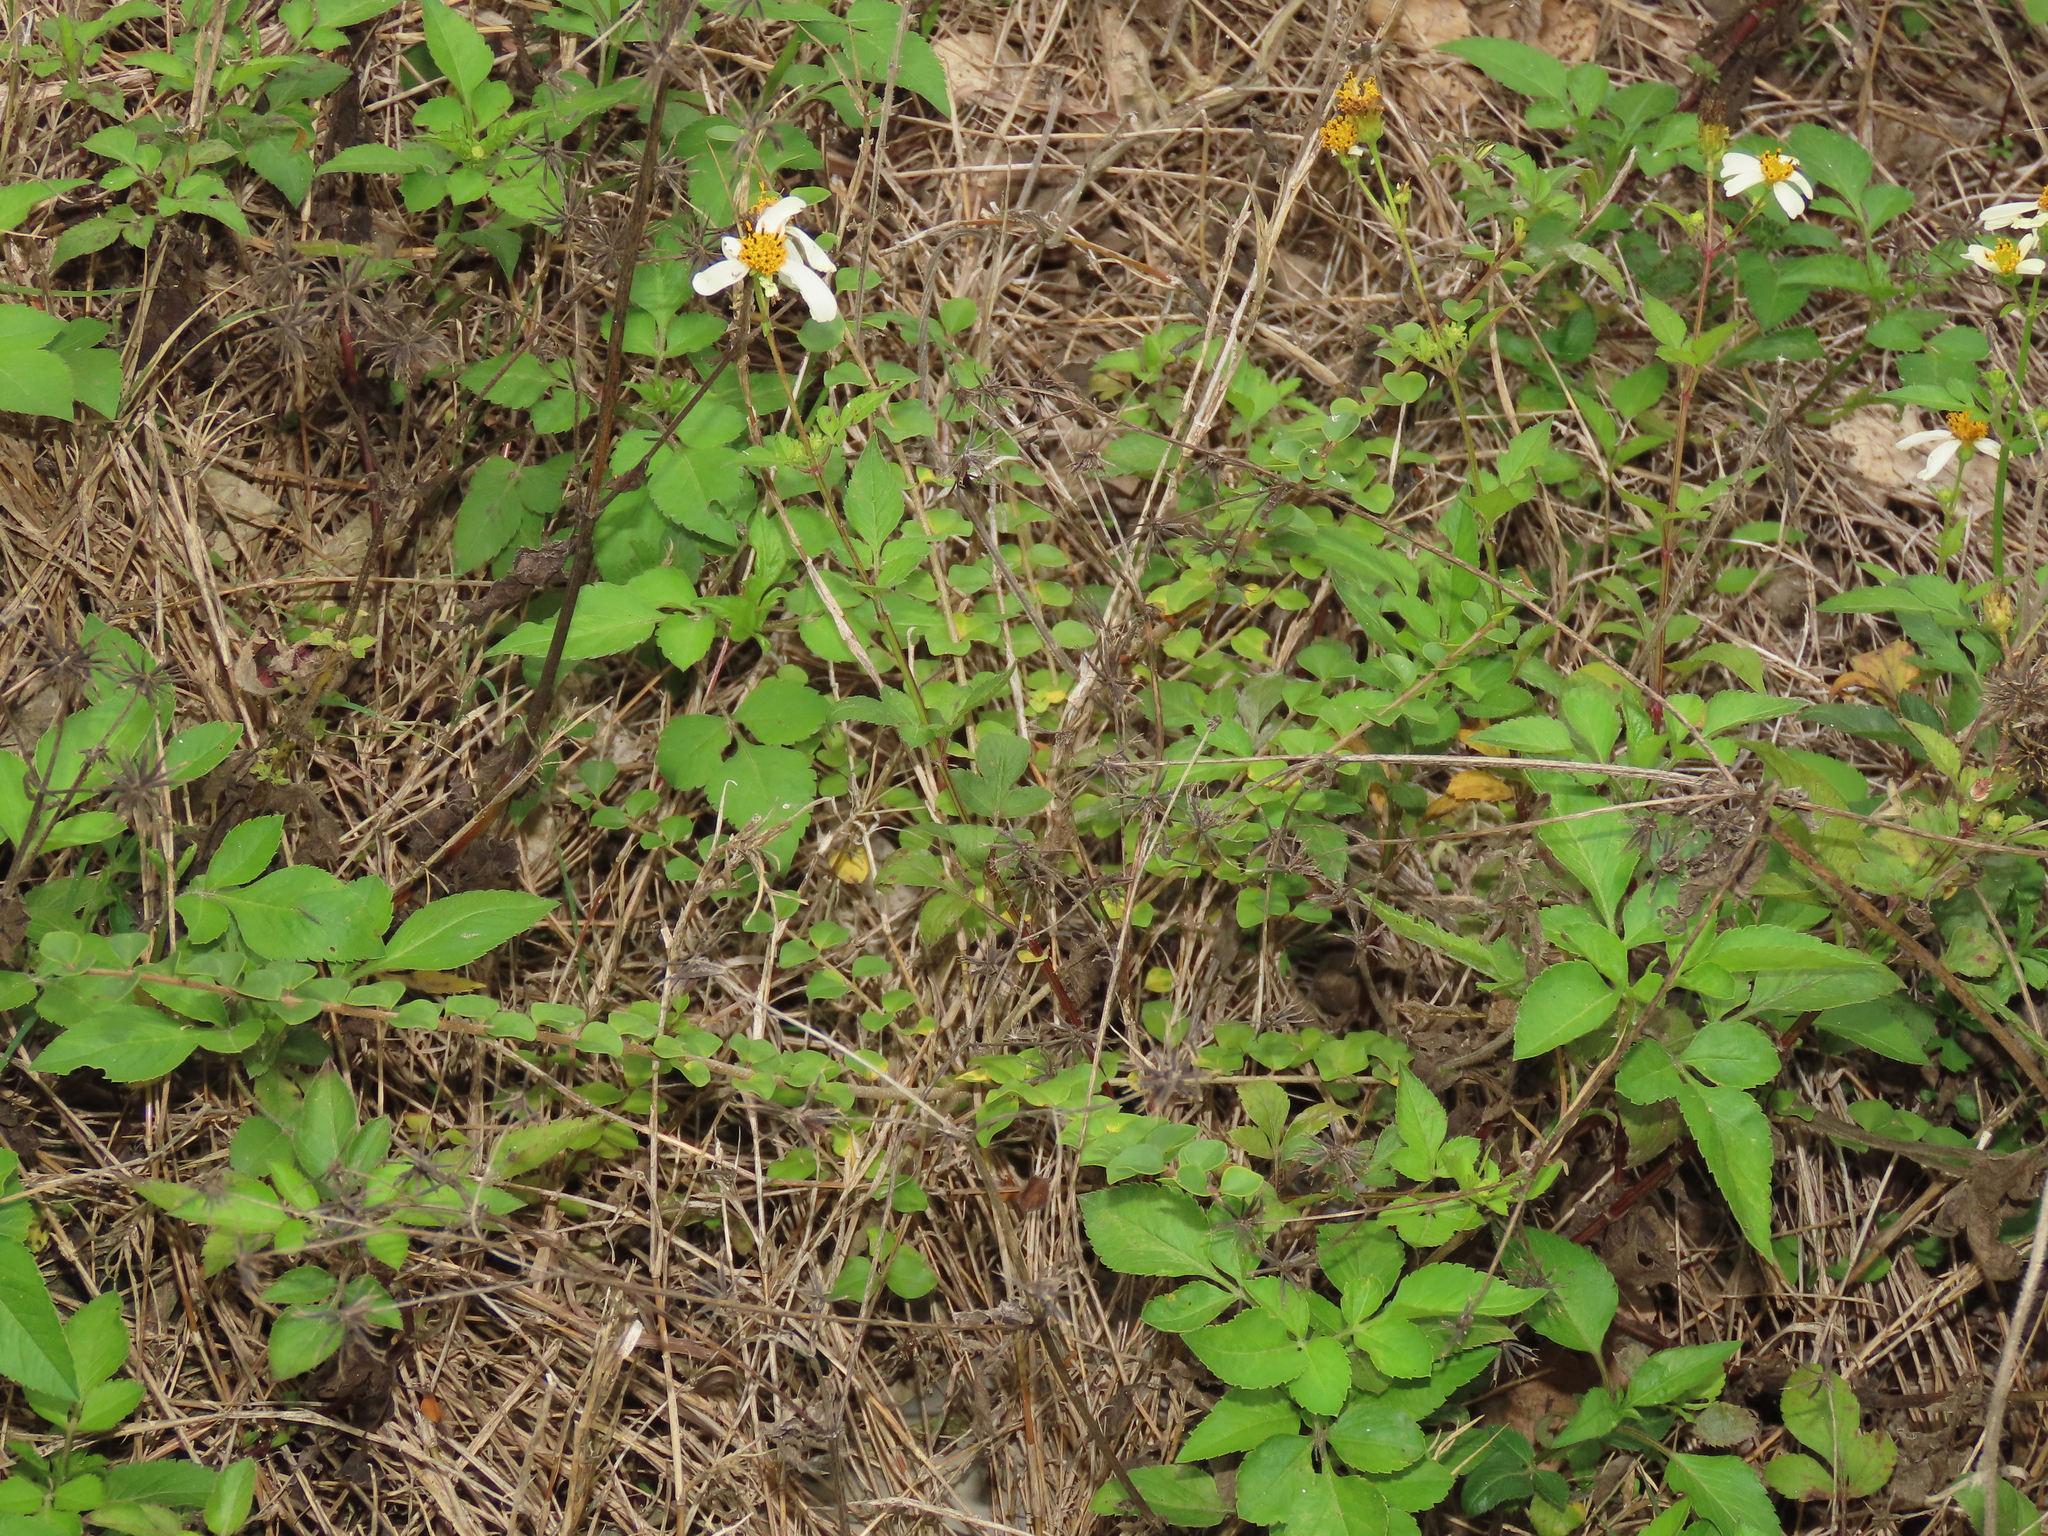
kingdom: Plantae
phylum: Tracheophyta
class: Magnoliopsida
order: Lamiales
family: Oleaceae
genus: Ligustrum
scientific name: Ligustrum sinense
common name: Chinese privet
